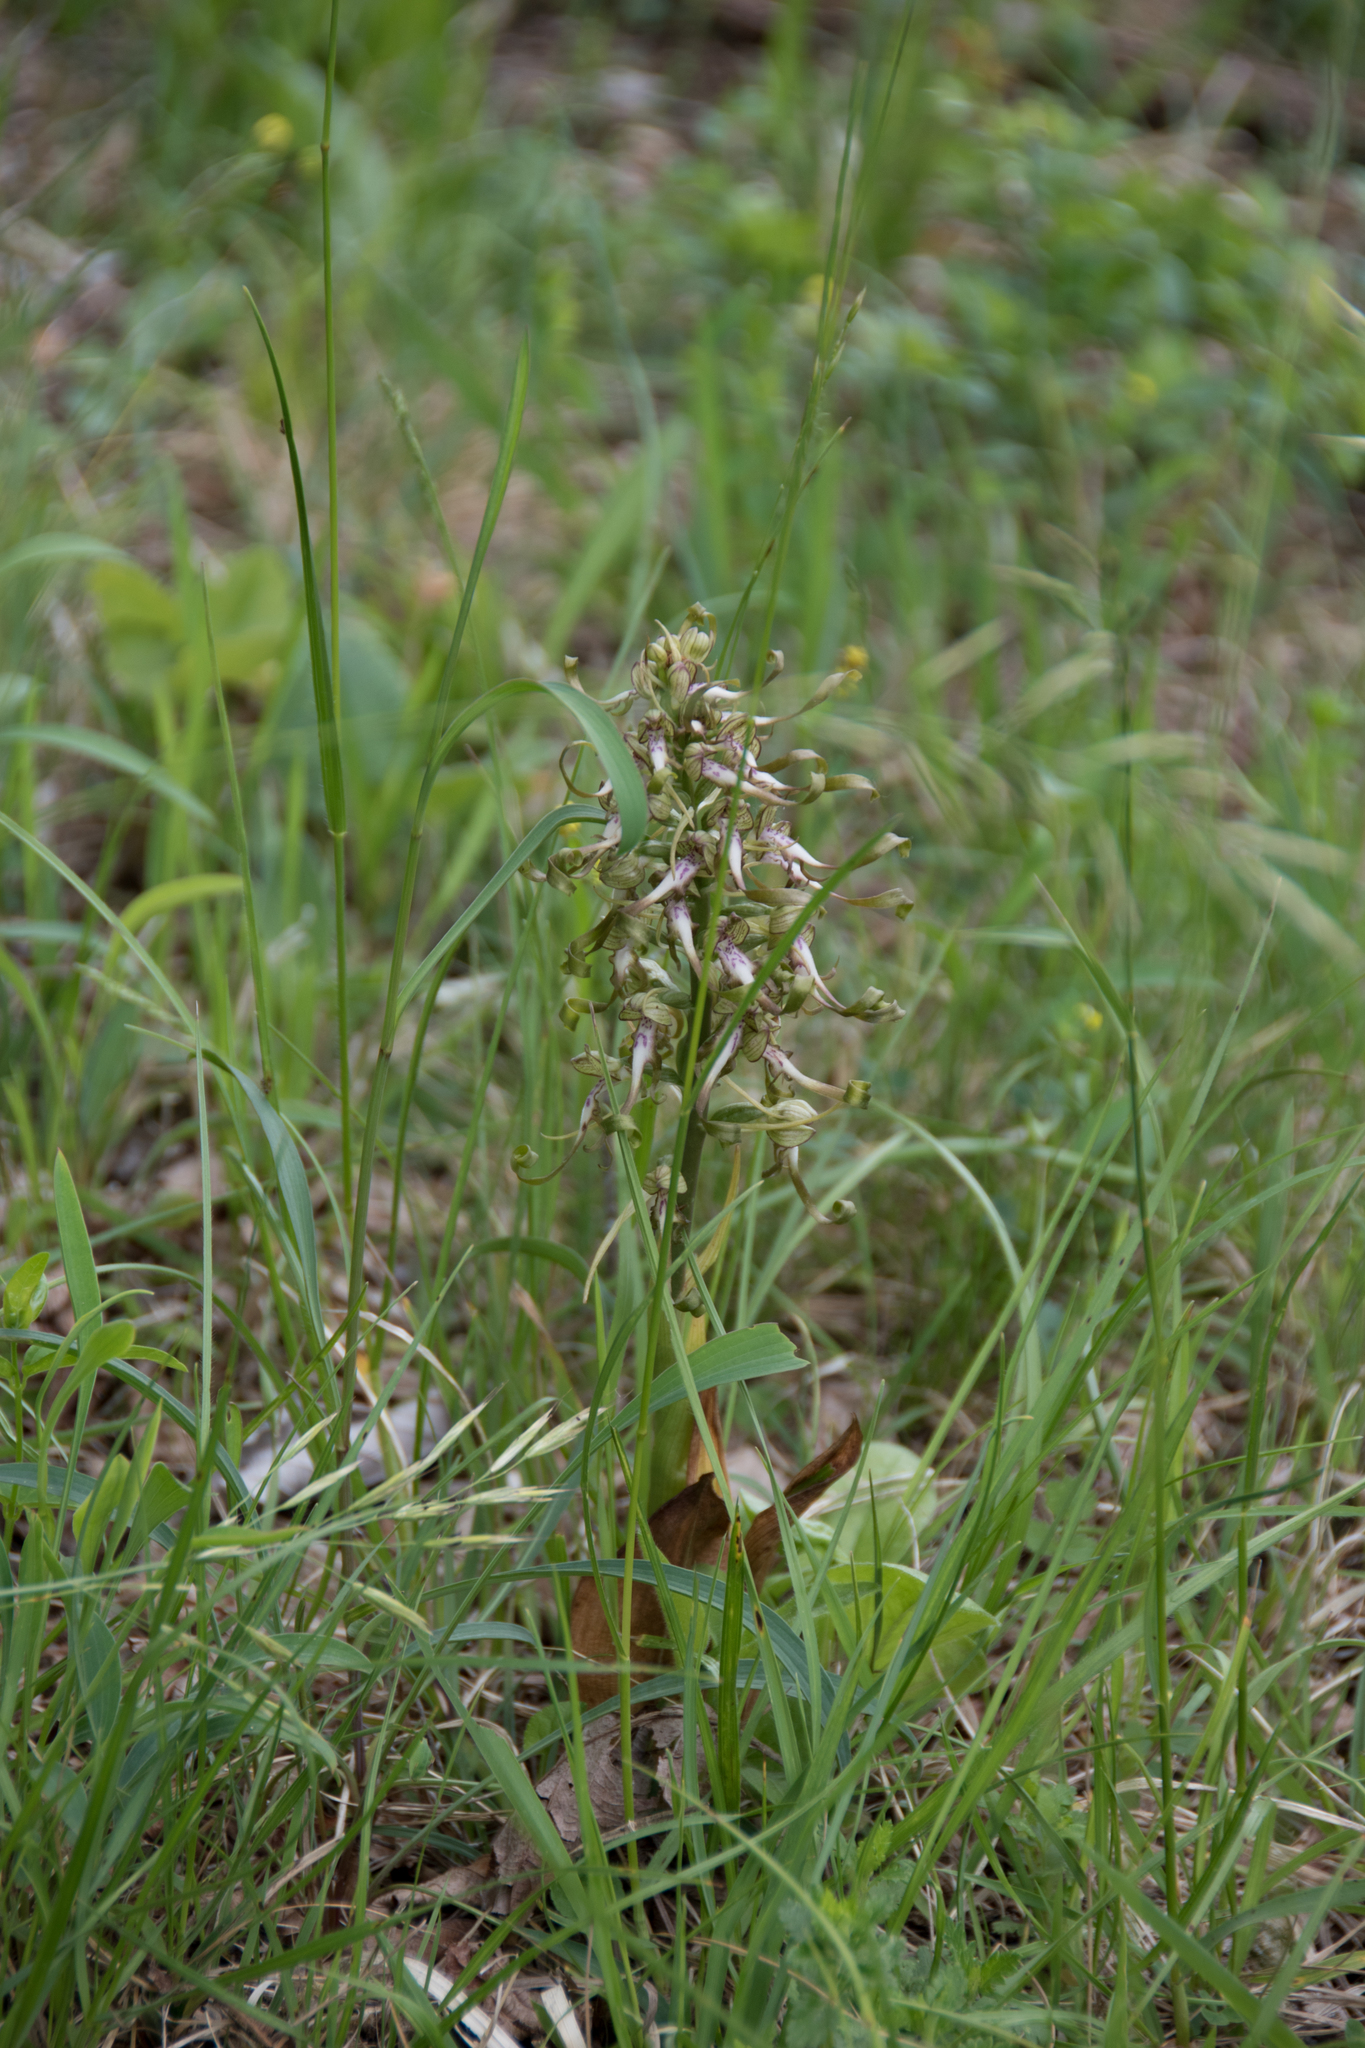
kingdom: Plantae
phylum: Tracheophyta
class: Liliopsida
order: Asparagales
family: Orchidaceae
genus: Himantoglossum
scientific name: Himantoglossum hircinum
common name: Lizard orchid
